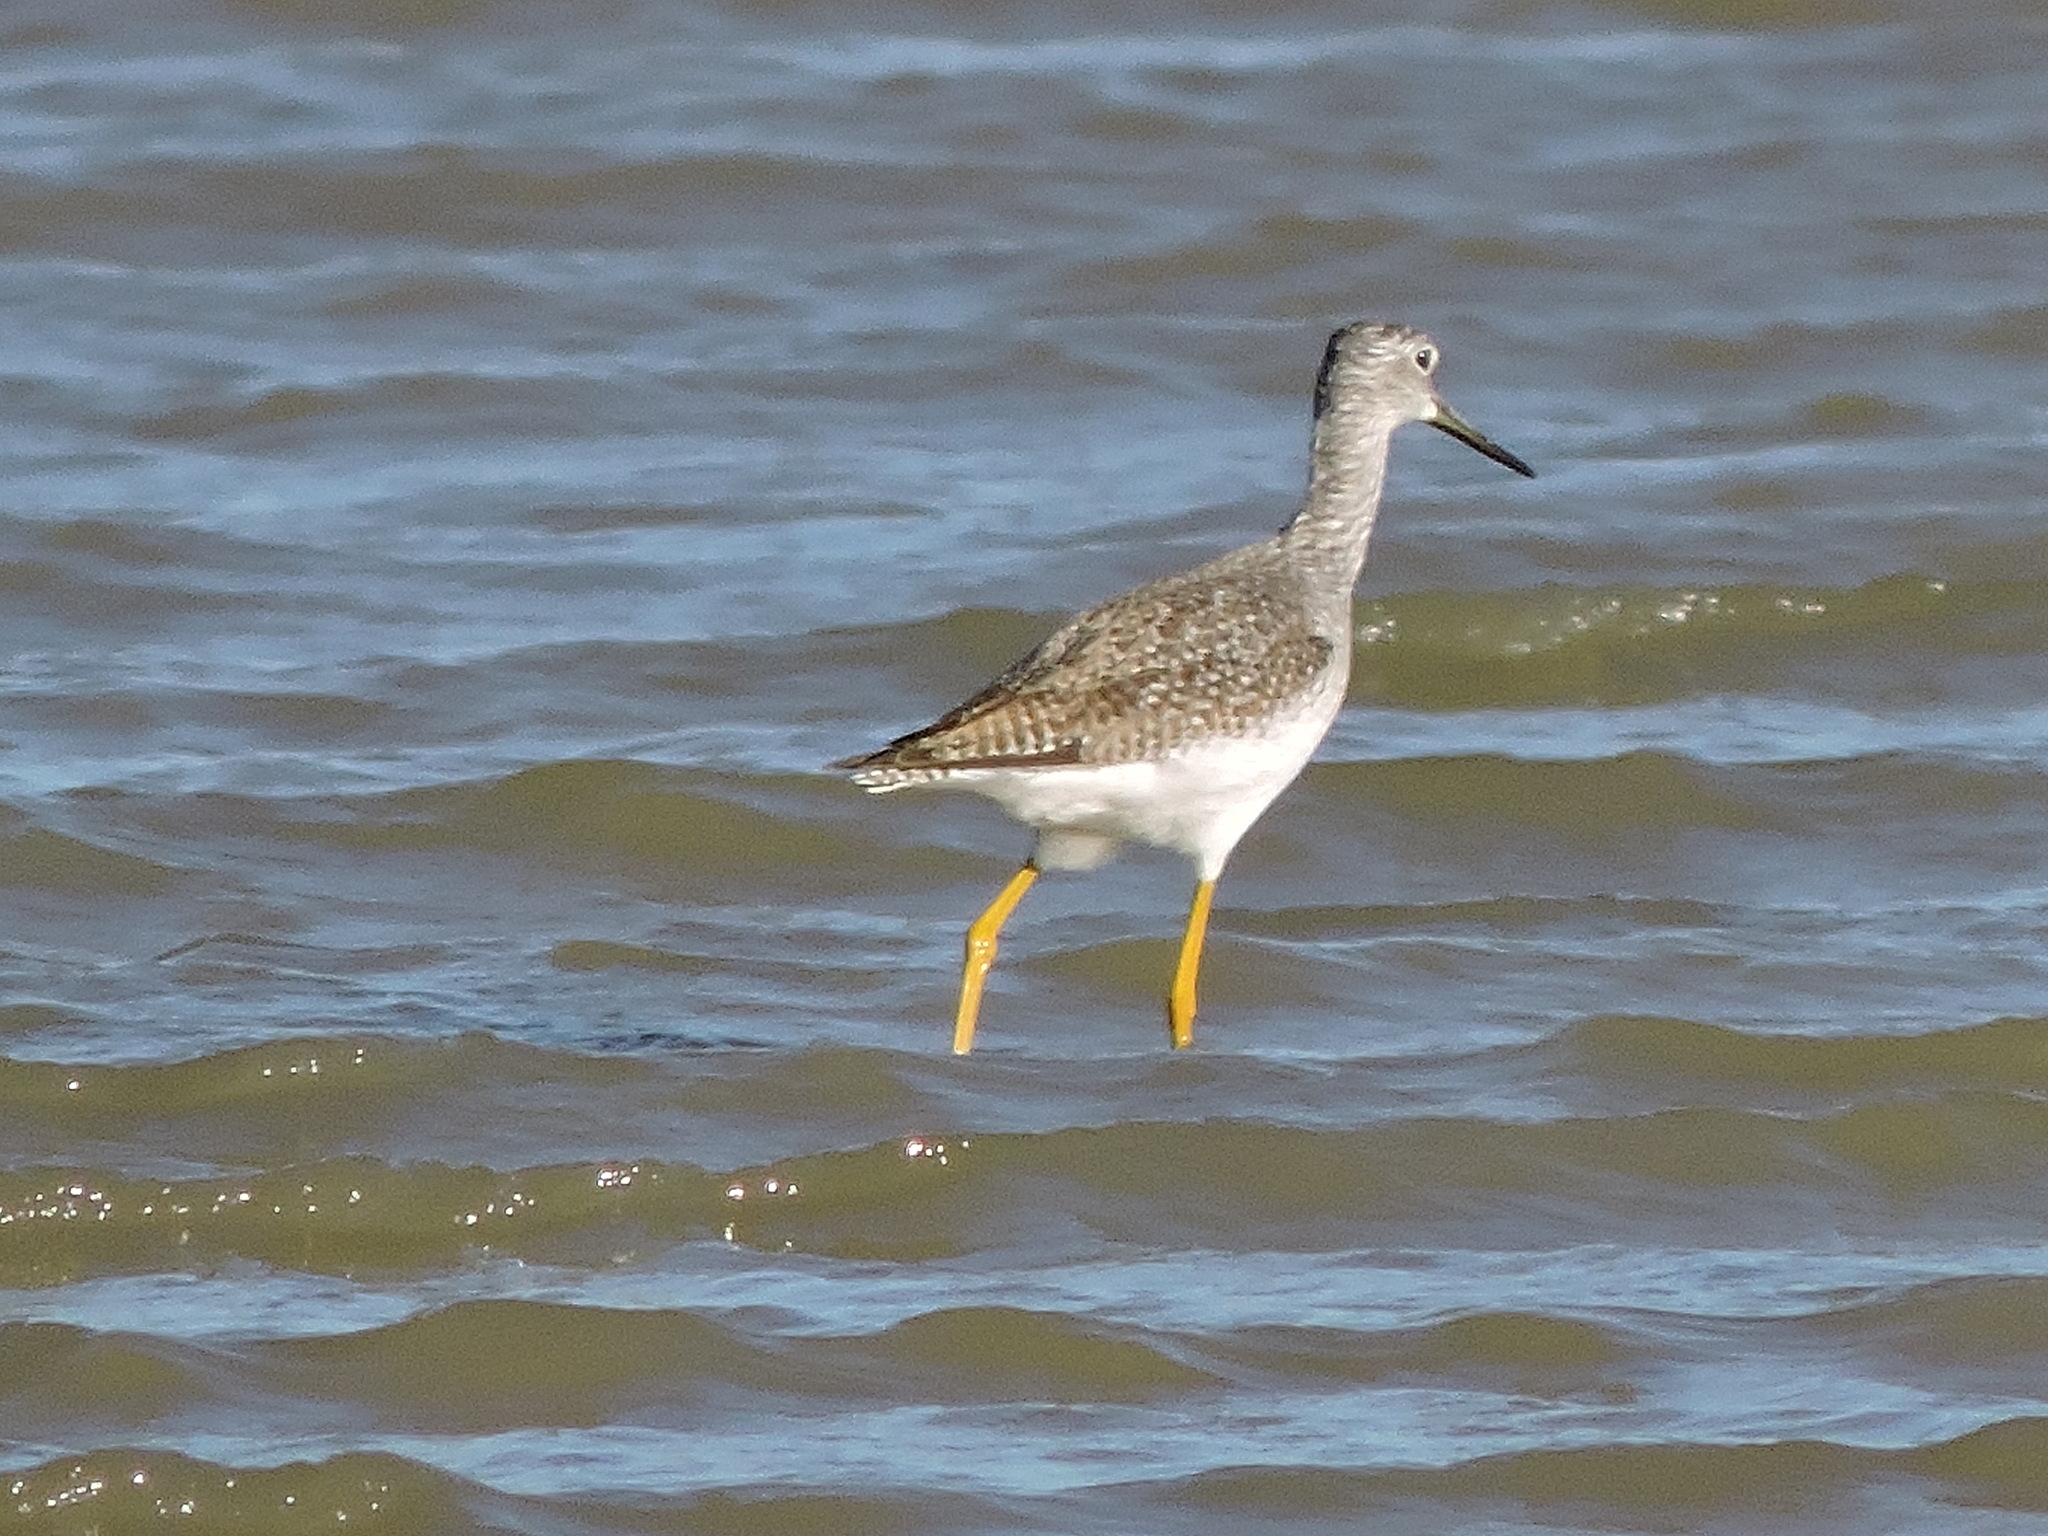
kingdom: Animalia
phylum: Chordata
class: Aves
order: Charadriiformes
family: Scolopacidae
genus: Tringa
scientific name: Tringa melanoleuca
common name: Greater yellowlegs
